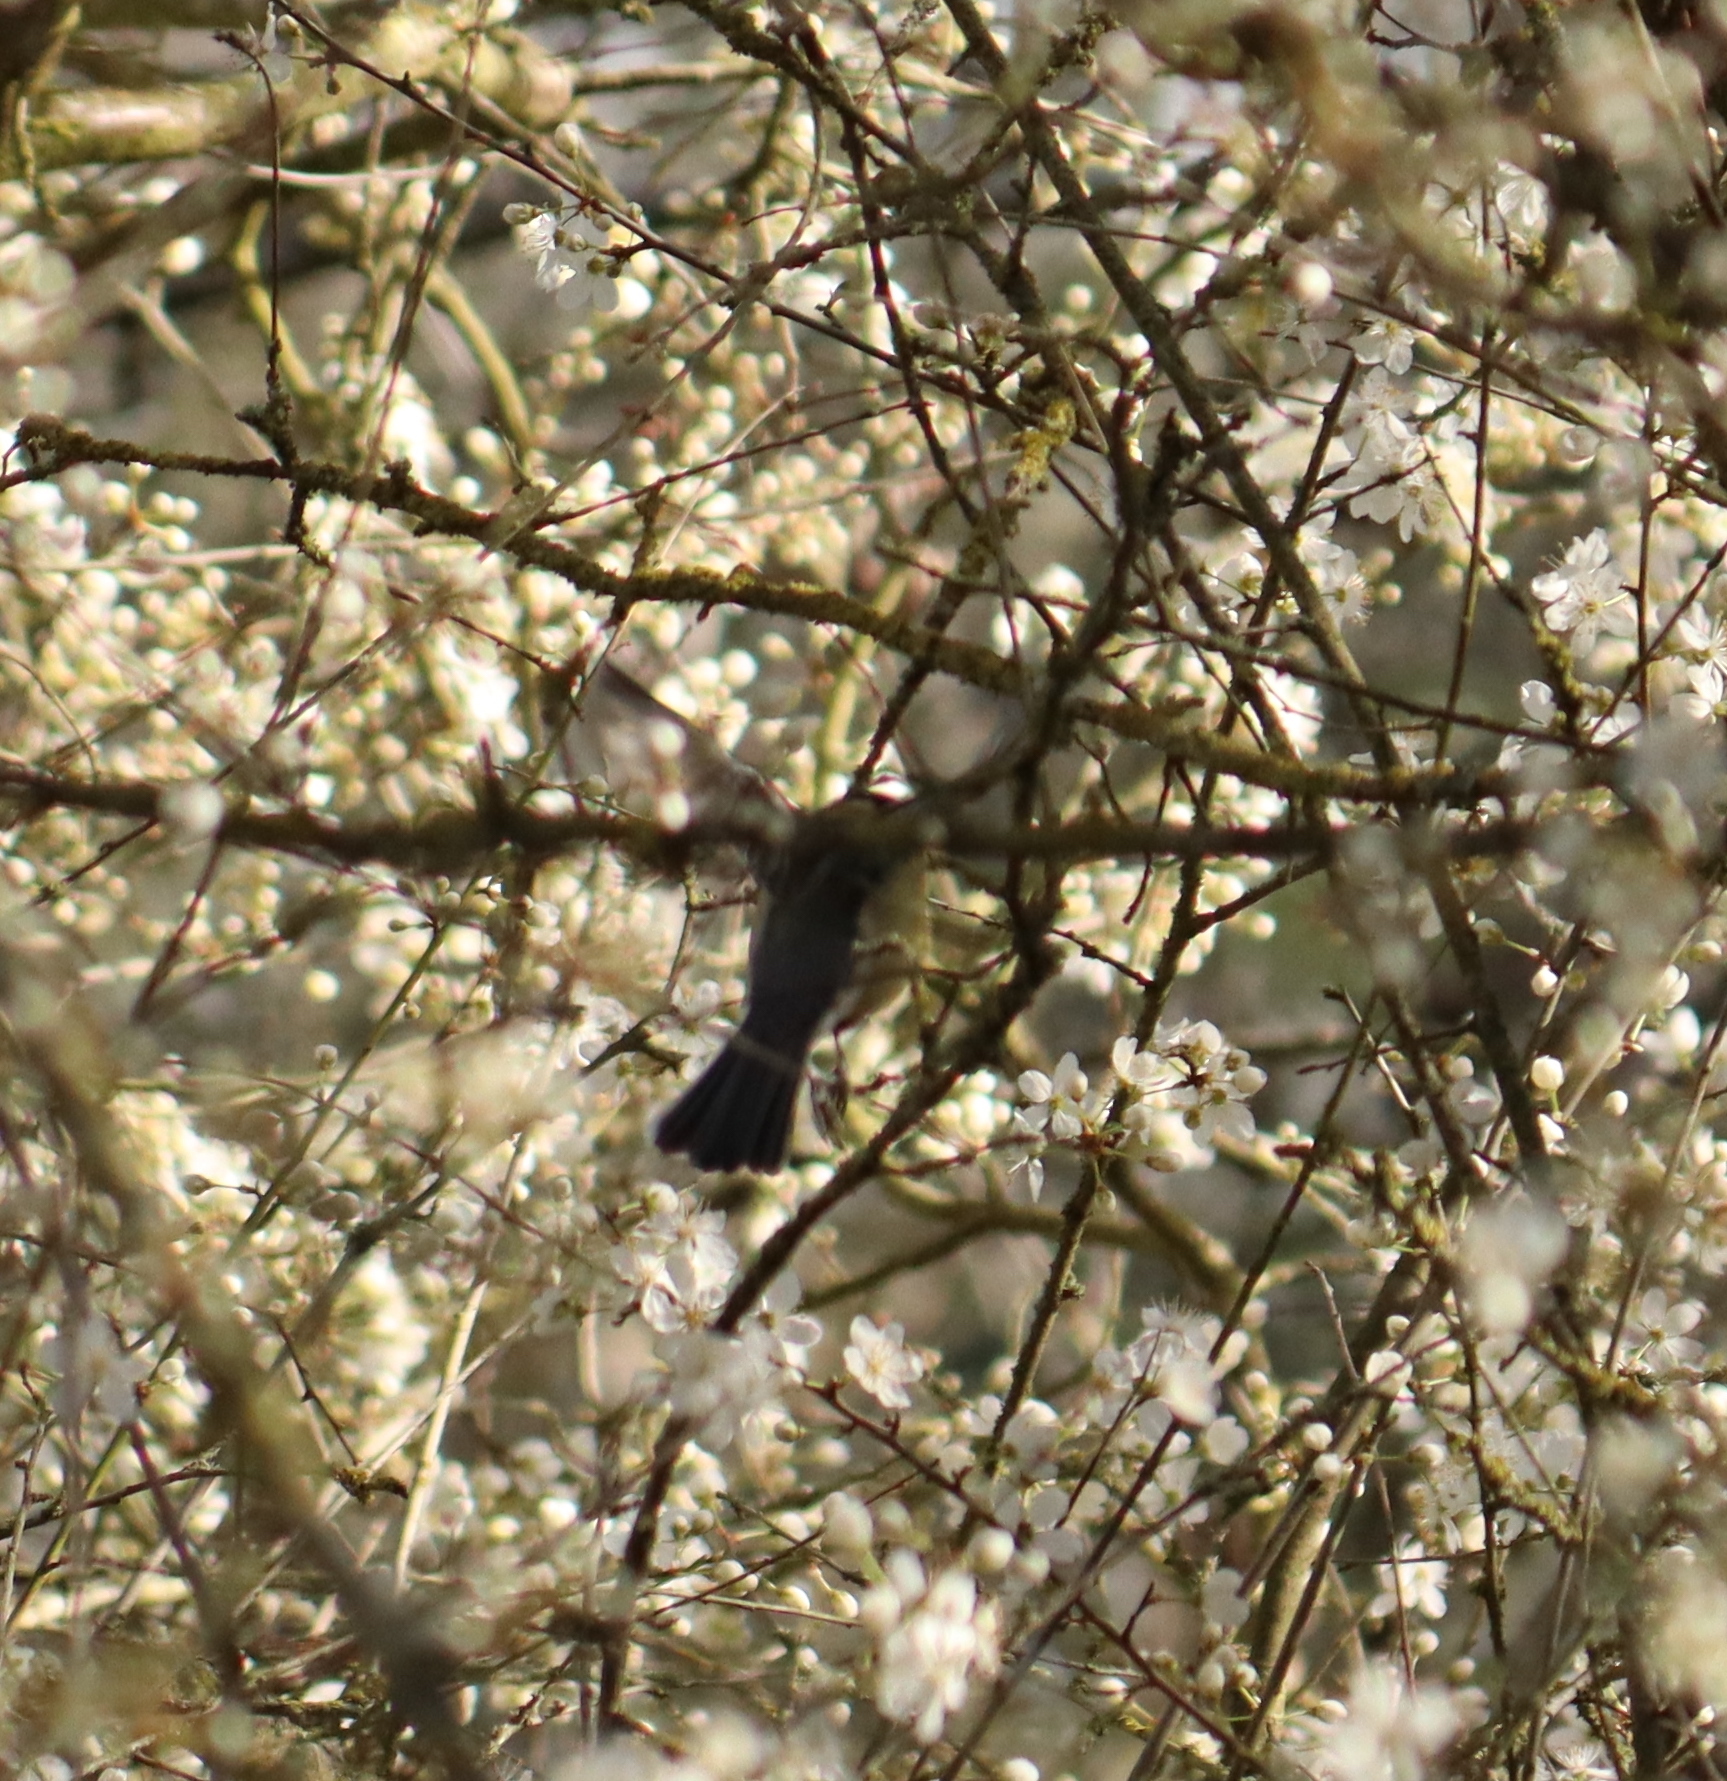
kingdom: Animalia
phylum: Chordata
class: Aves
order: Passeriformes
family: Paridae
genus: Parus
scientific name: Parus major
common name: Great tit
